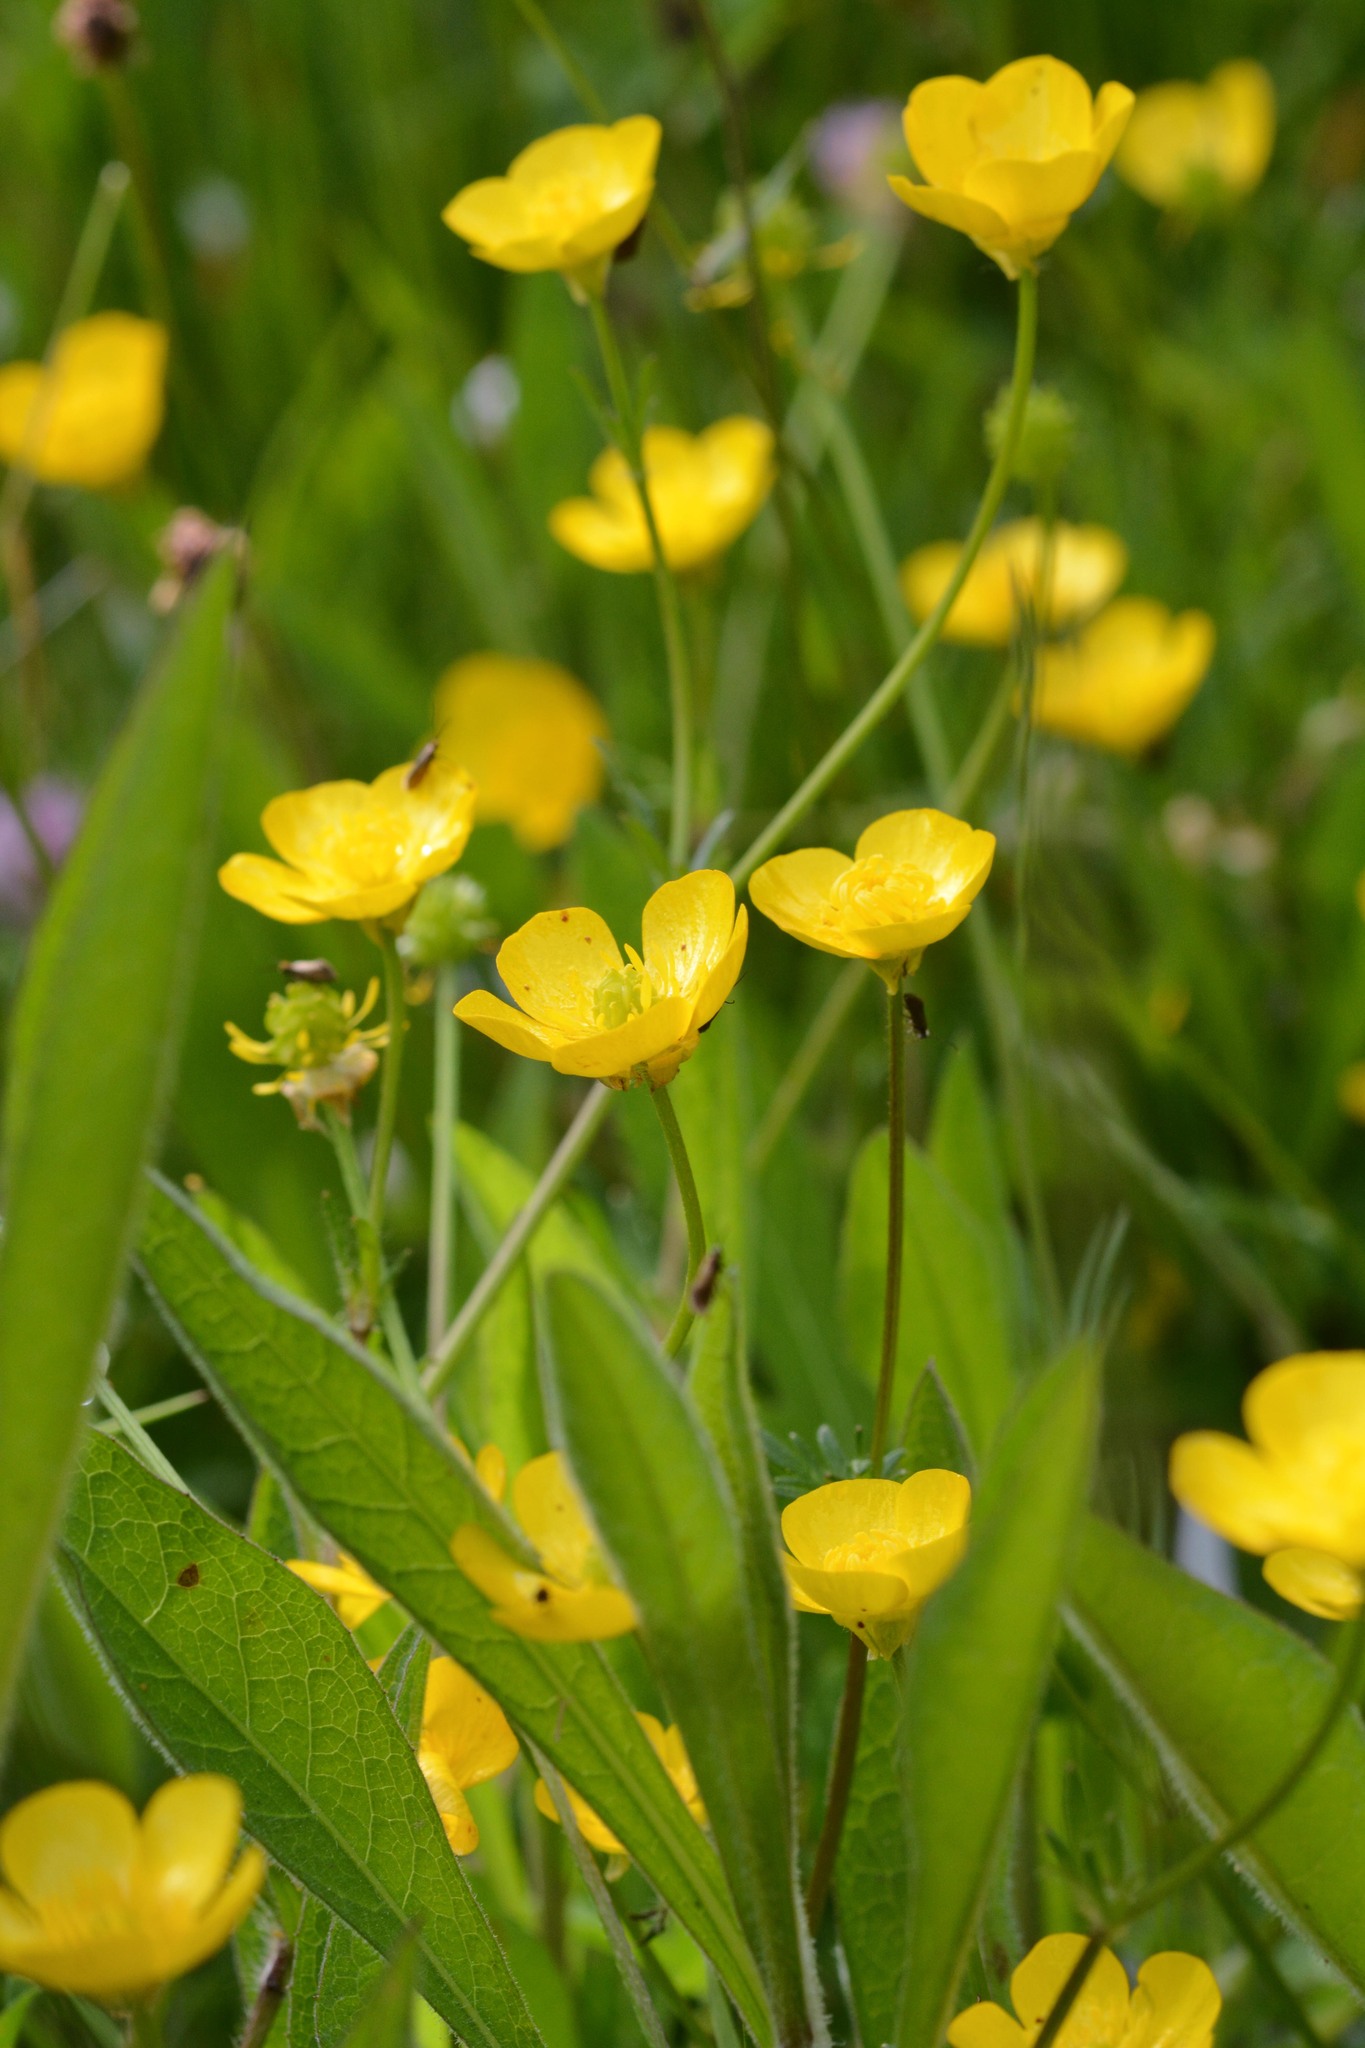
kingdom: Plantae
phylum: Tracheophyta
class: Magnoliopsida
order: Ranunculales
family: Ranunculaceae
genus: Ranunculus
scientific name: Ranunculus bulbosus
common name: Bulbous buttercup
